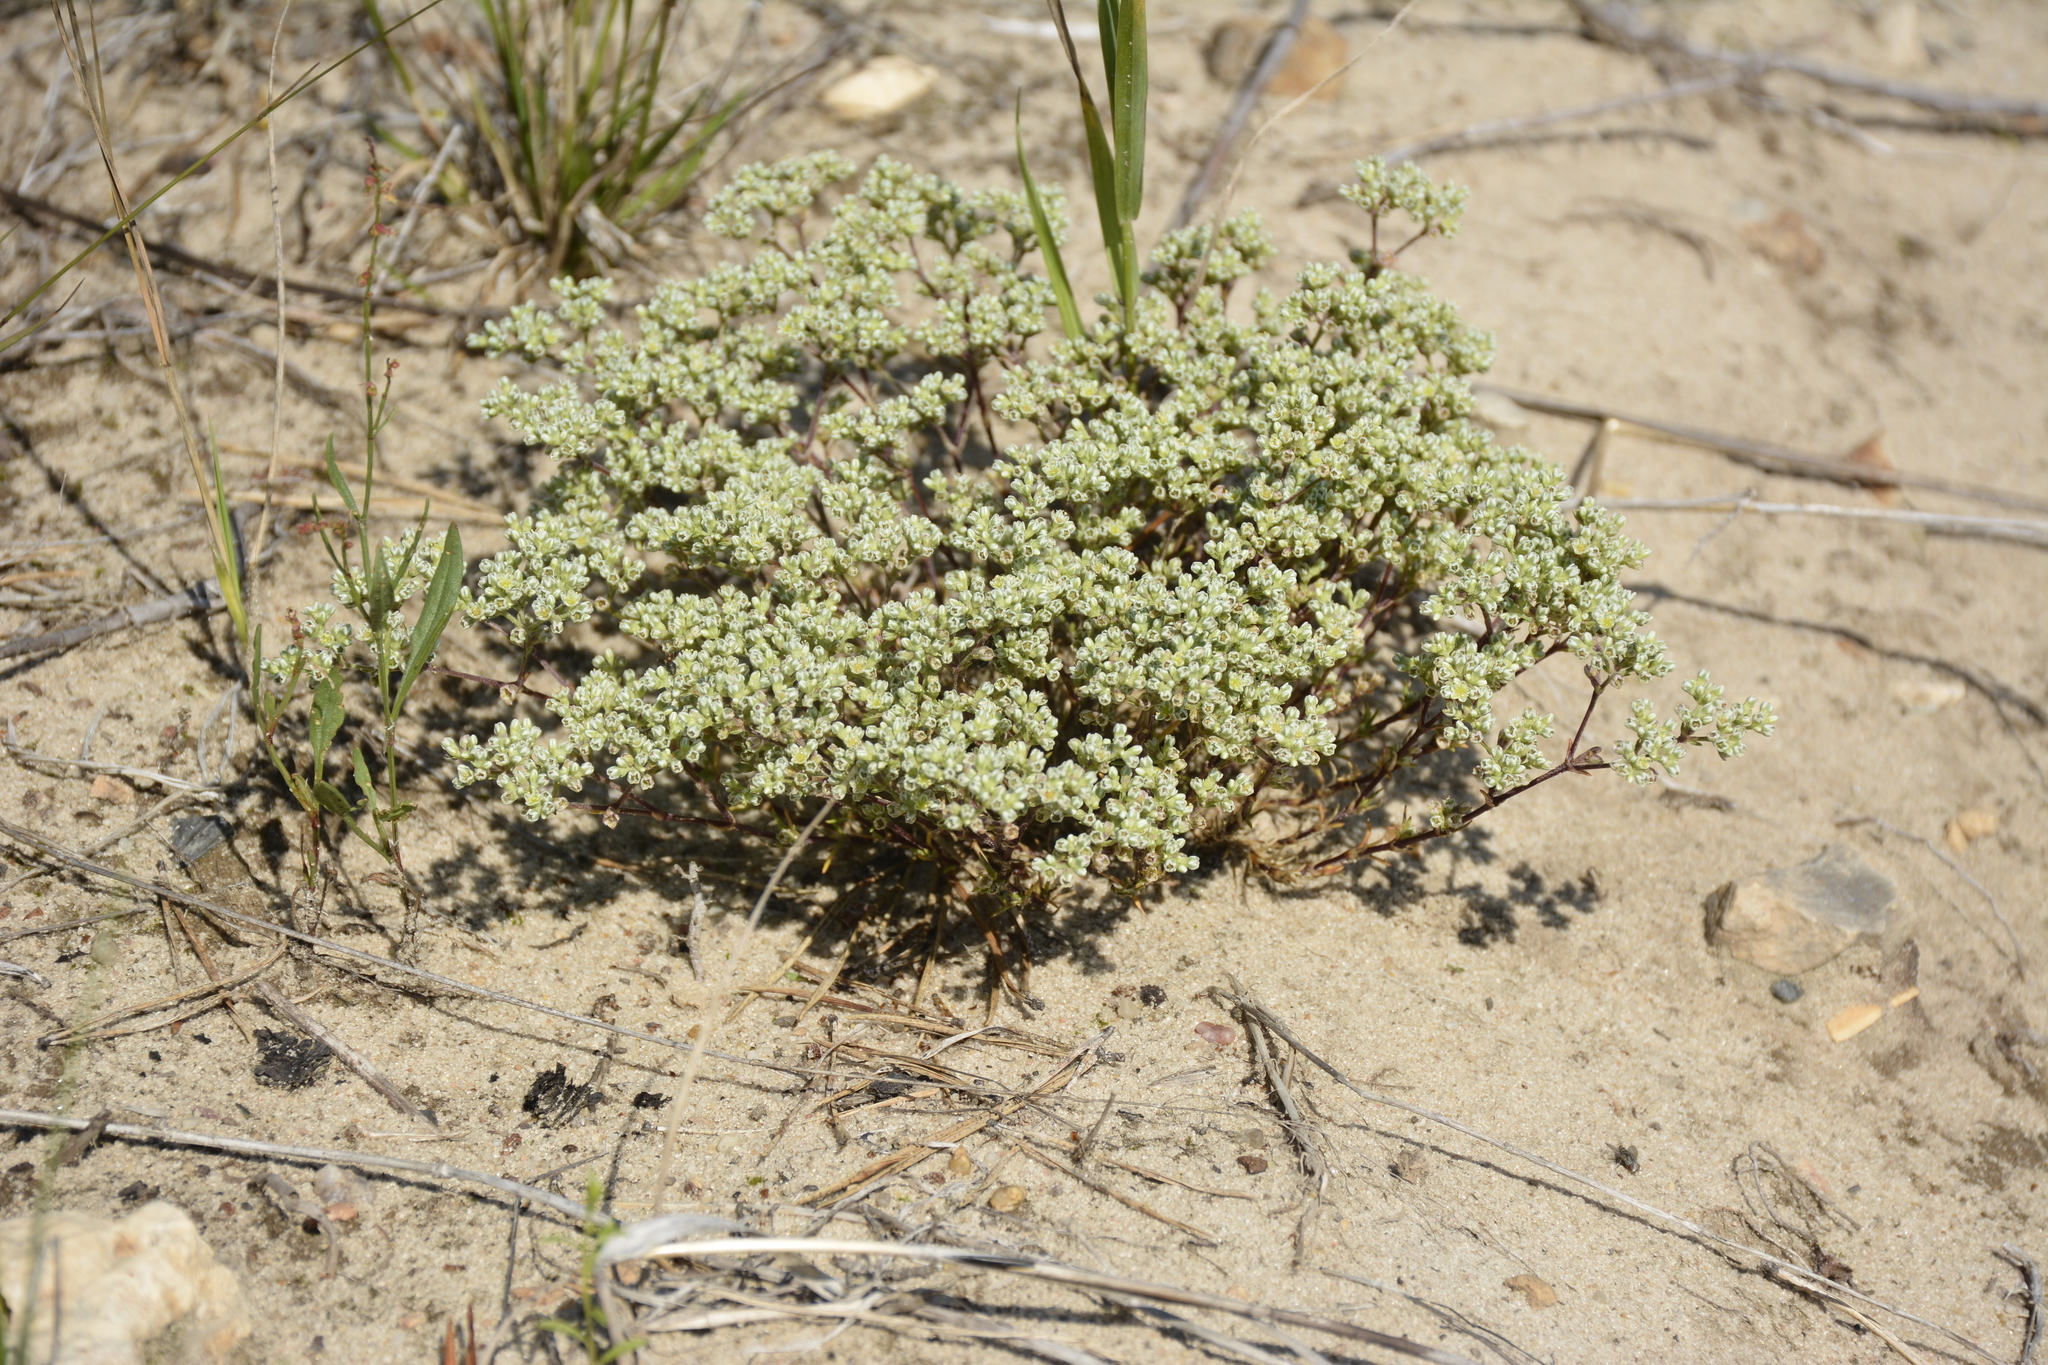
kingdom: Plantae
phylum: Tracheophyta
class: Magnoliopsida
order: Caryophyllales
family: Caryophyllaceae
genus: Scleranthus
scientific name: Scleranthus perennis
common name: Perennial knawel
